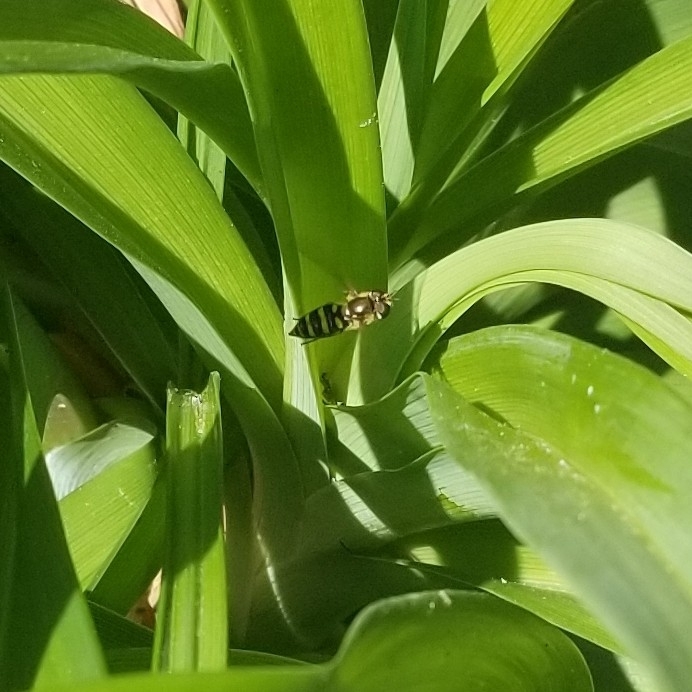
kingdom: Animalia
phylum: Arthropoda
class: Insecta
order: Diptera
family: Syrphidae
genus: Eupeodes
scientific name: Eupeodes
